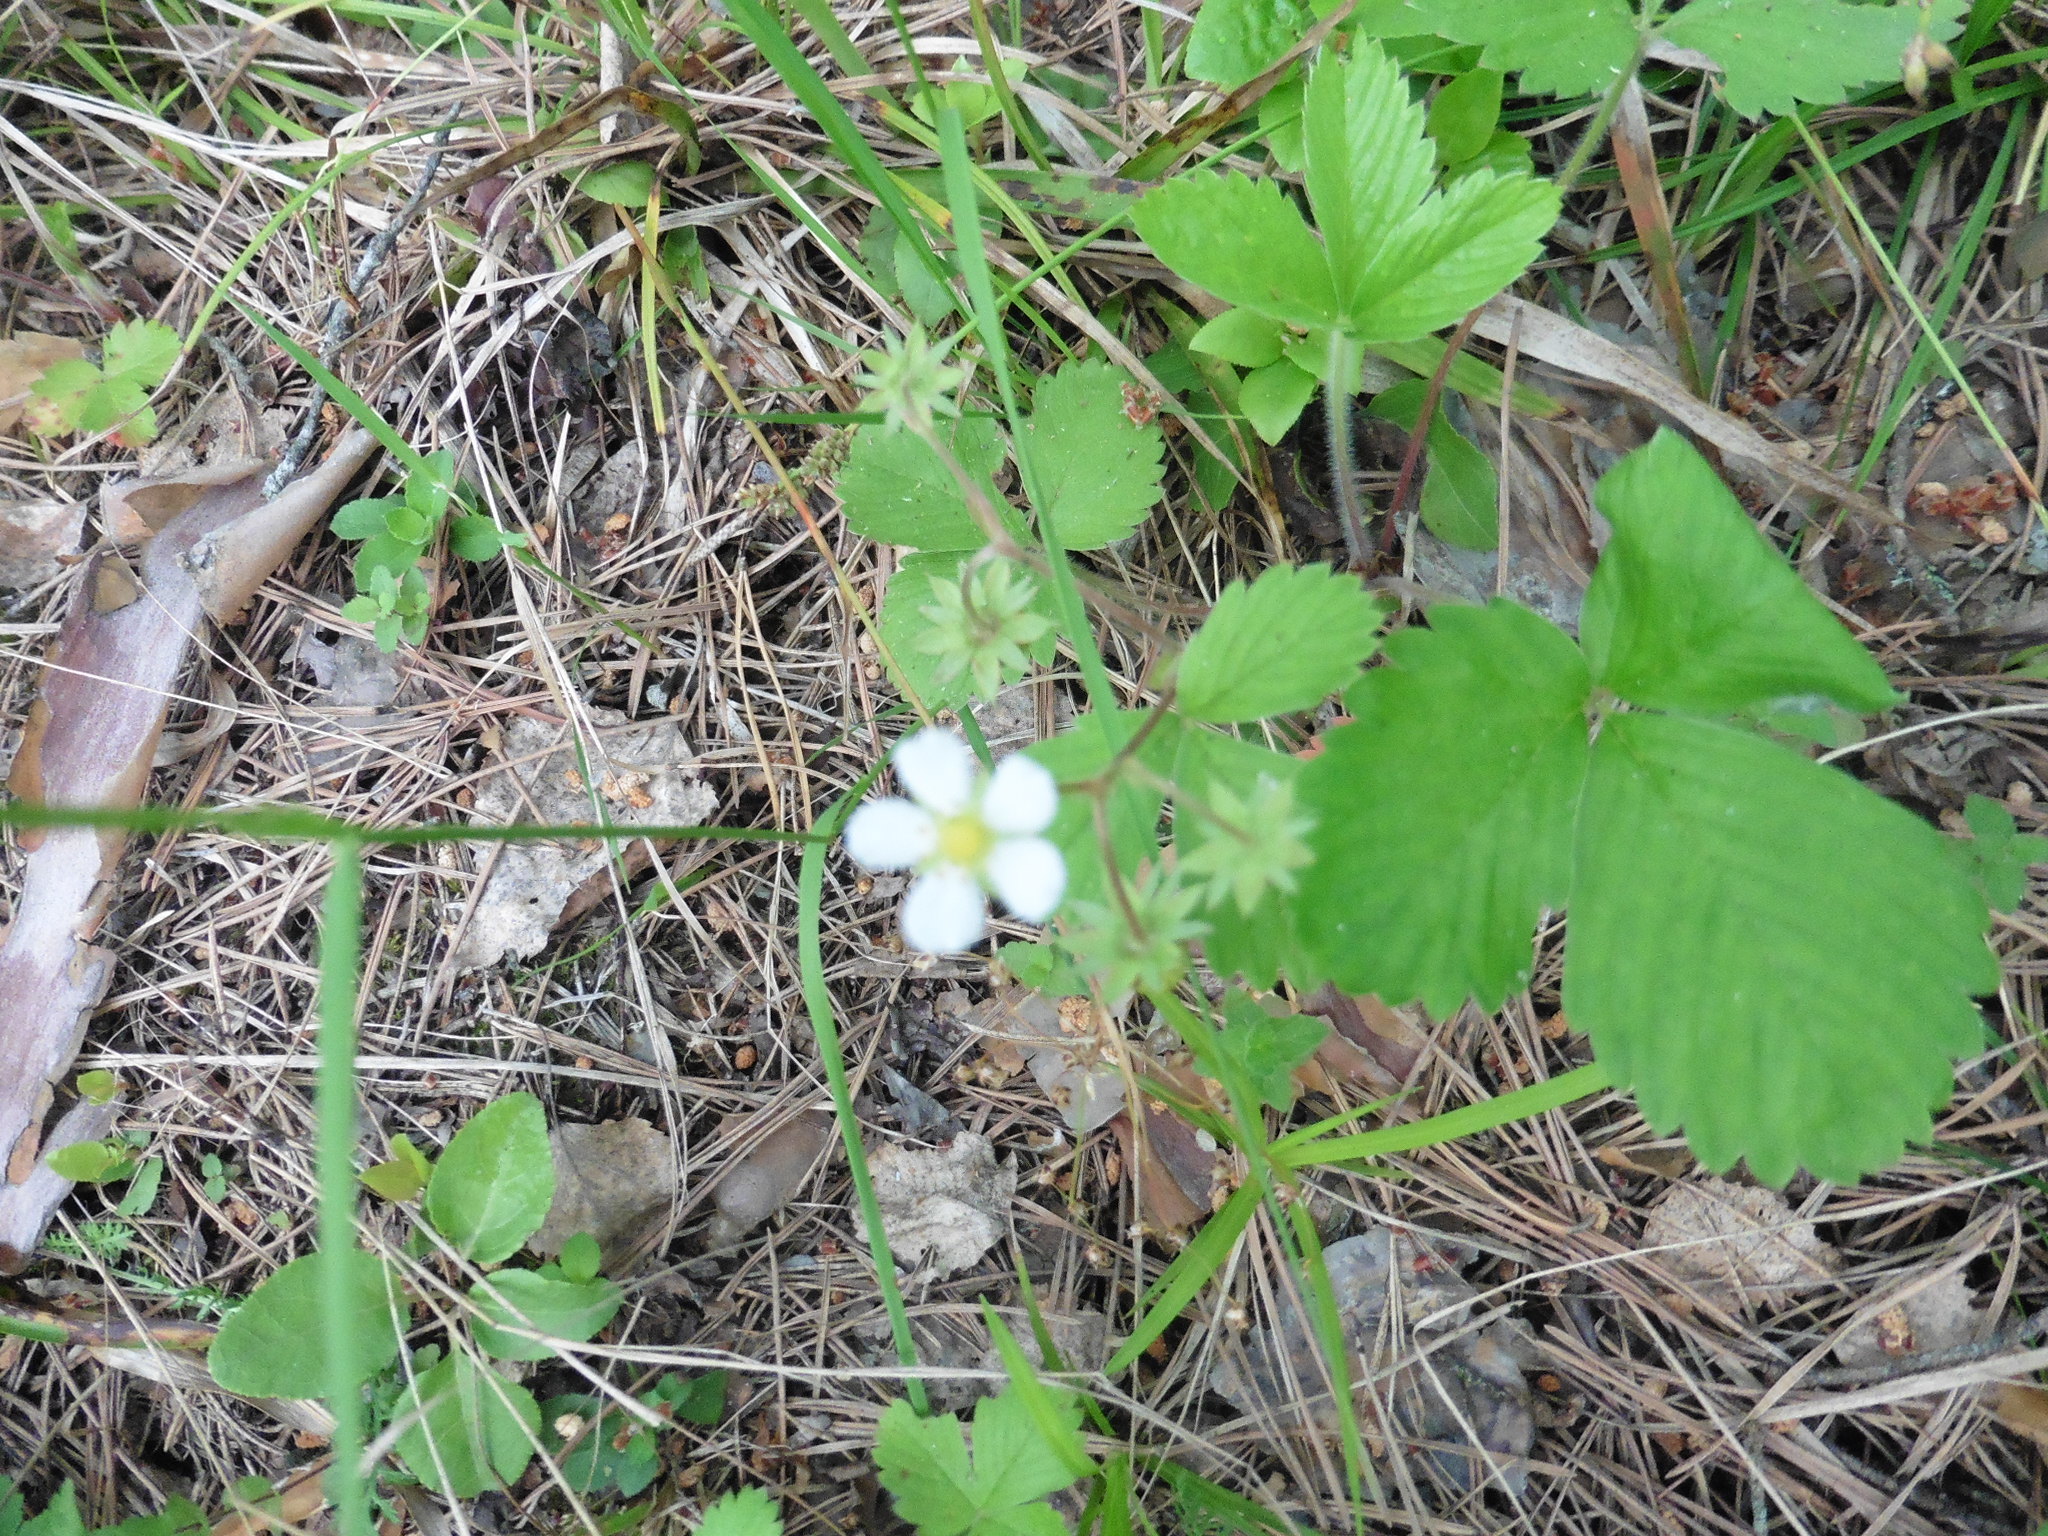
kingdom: Plantae
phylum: Tracheophyta
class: Magnoliopsida
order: Rosales
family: Rosaceae
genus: Fragaria
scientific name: Fragaria vesca
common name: Wild strawberry
